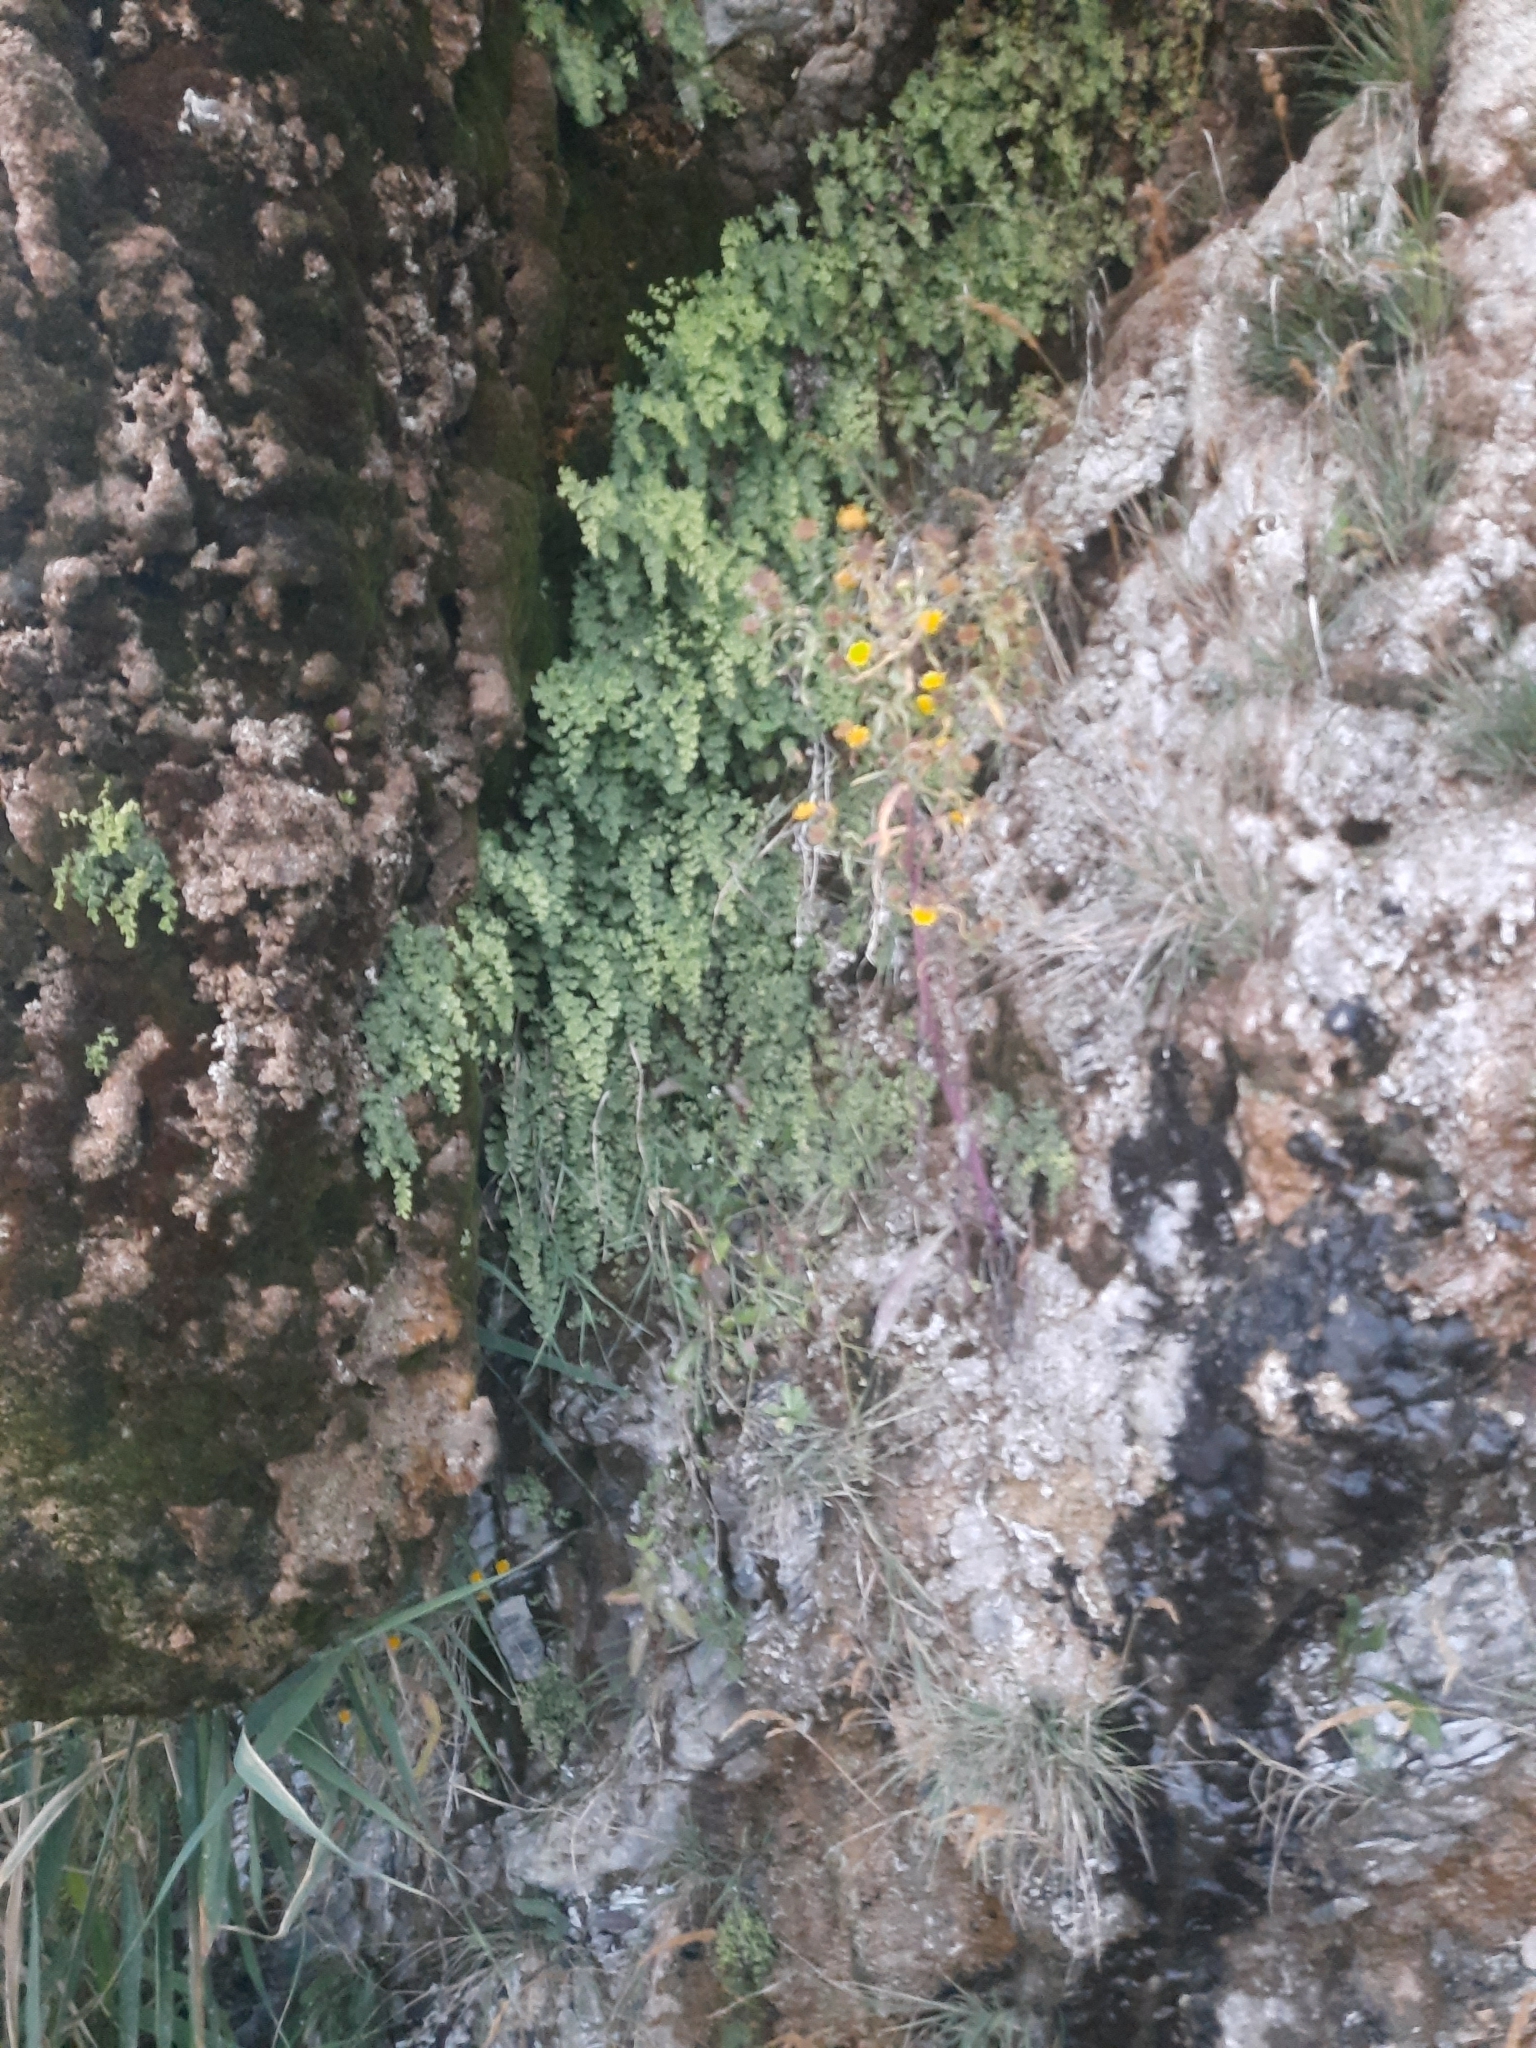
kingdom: Plantae
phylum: Tracheophyta
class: Polypodiopsida
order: Polypodiales
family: Pteridaceae
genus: Adiantum
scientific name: Adiantum capillus-veneris
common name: Maidenhair fern
